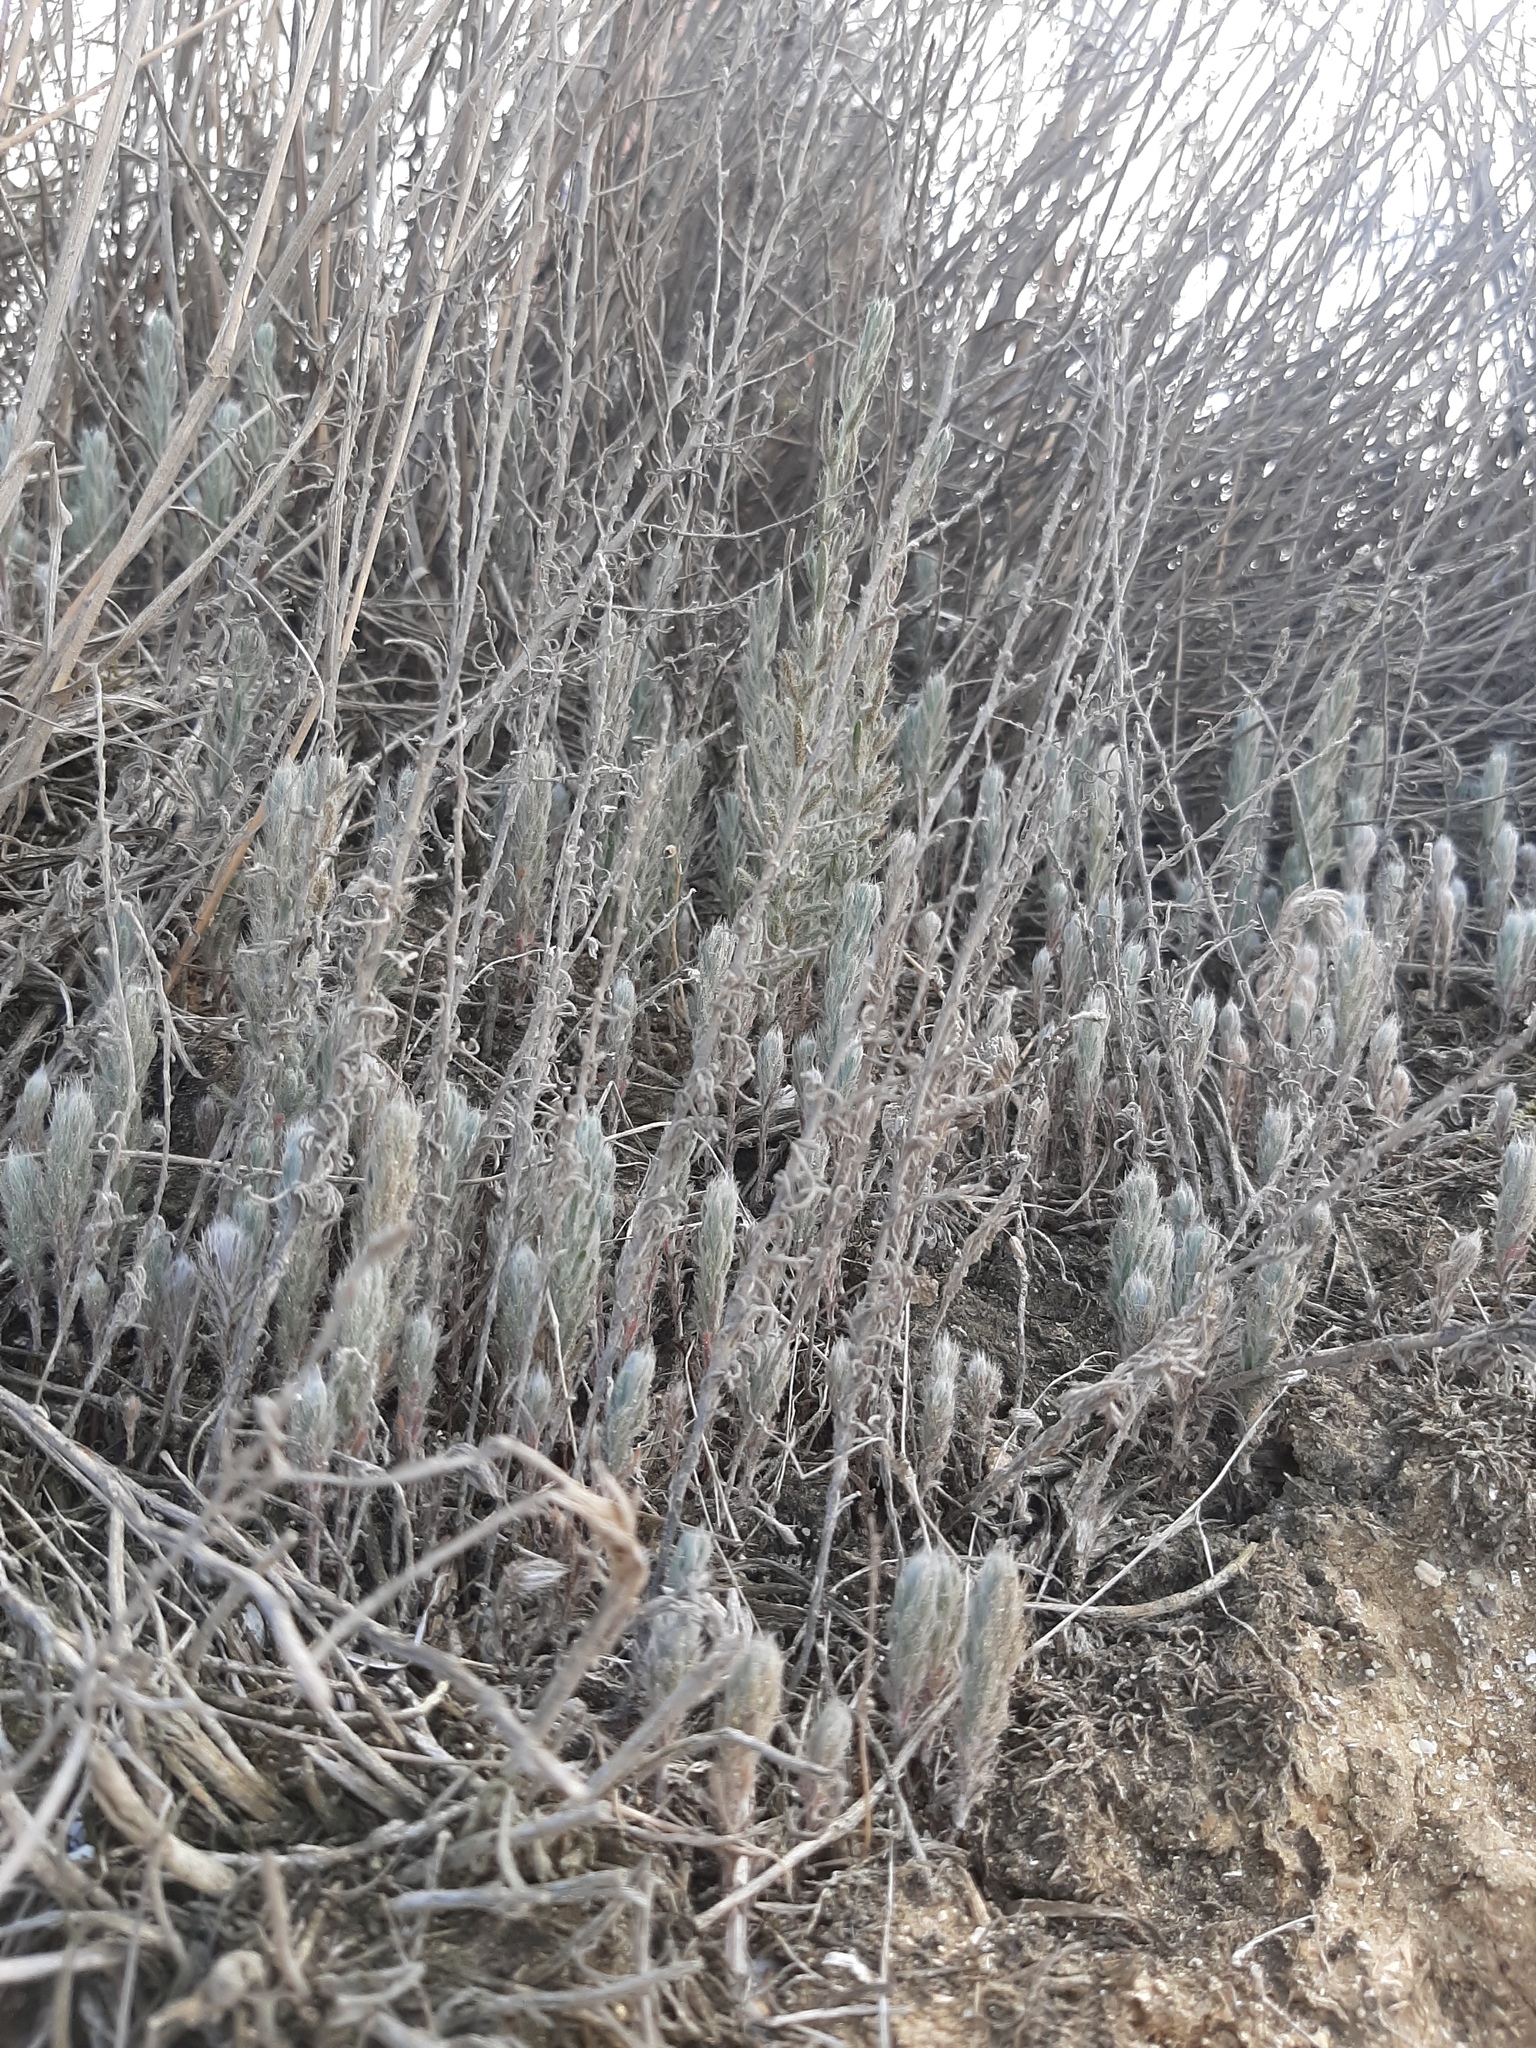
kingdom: Plantae
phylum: Tracheophyta
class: Magnoliopsida
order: Caryophyllales
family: Amaranthaceae
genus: Sedobassia
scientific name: Sedobassia sedoides
